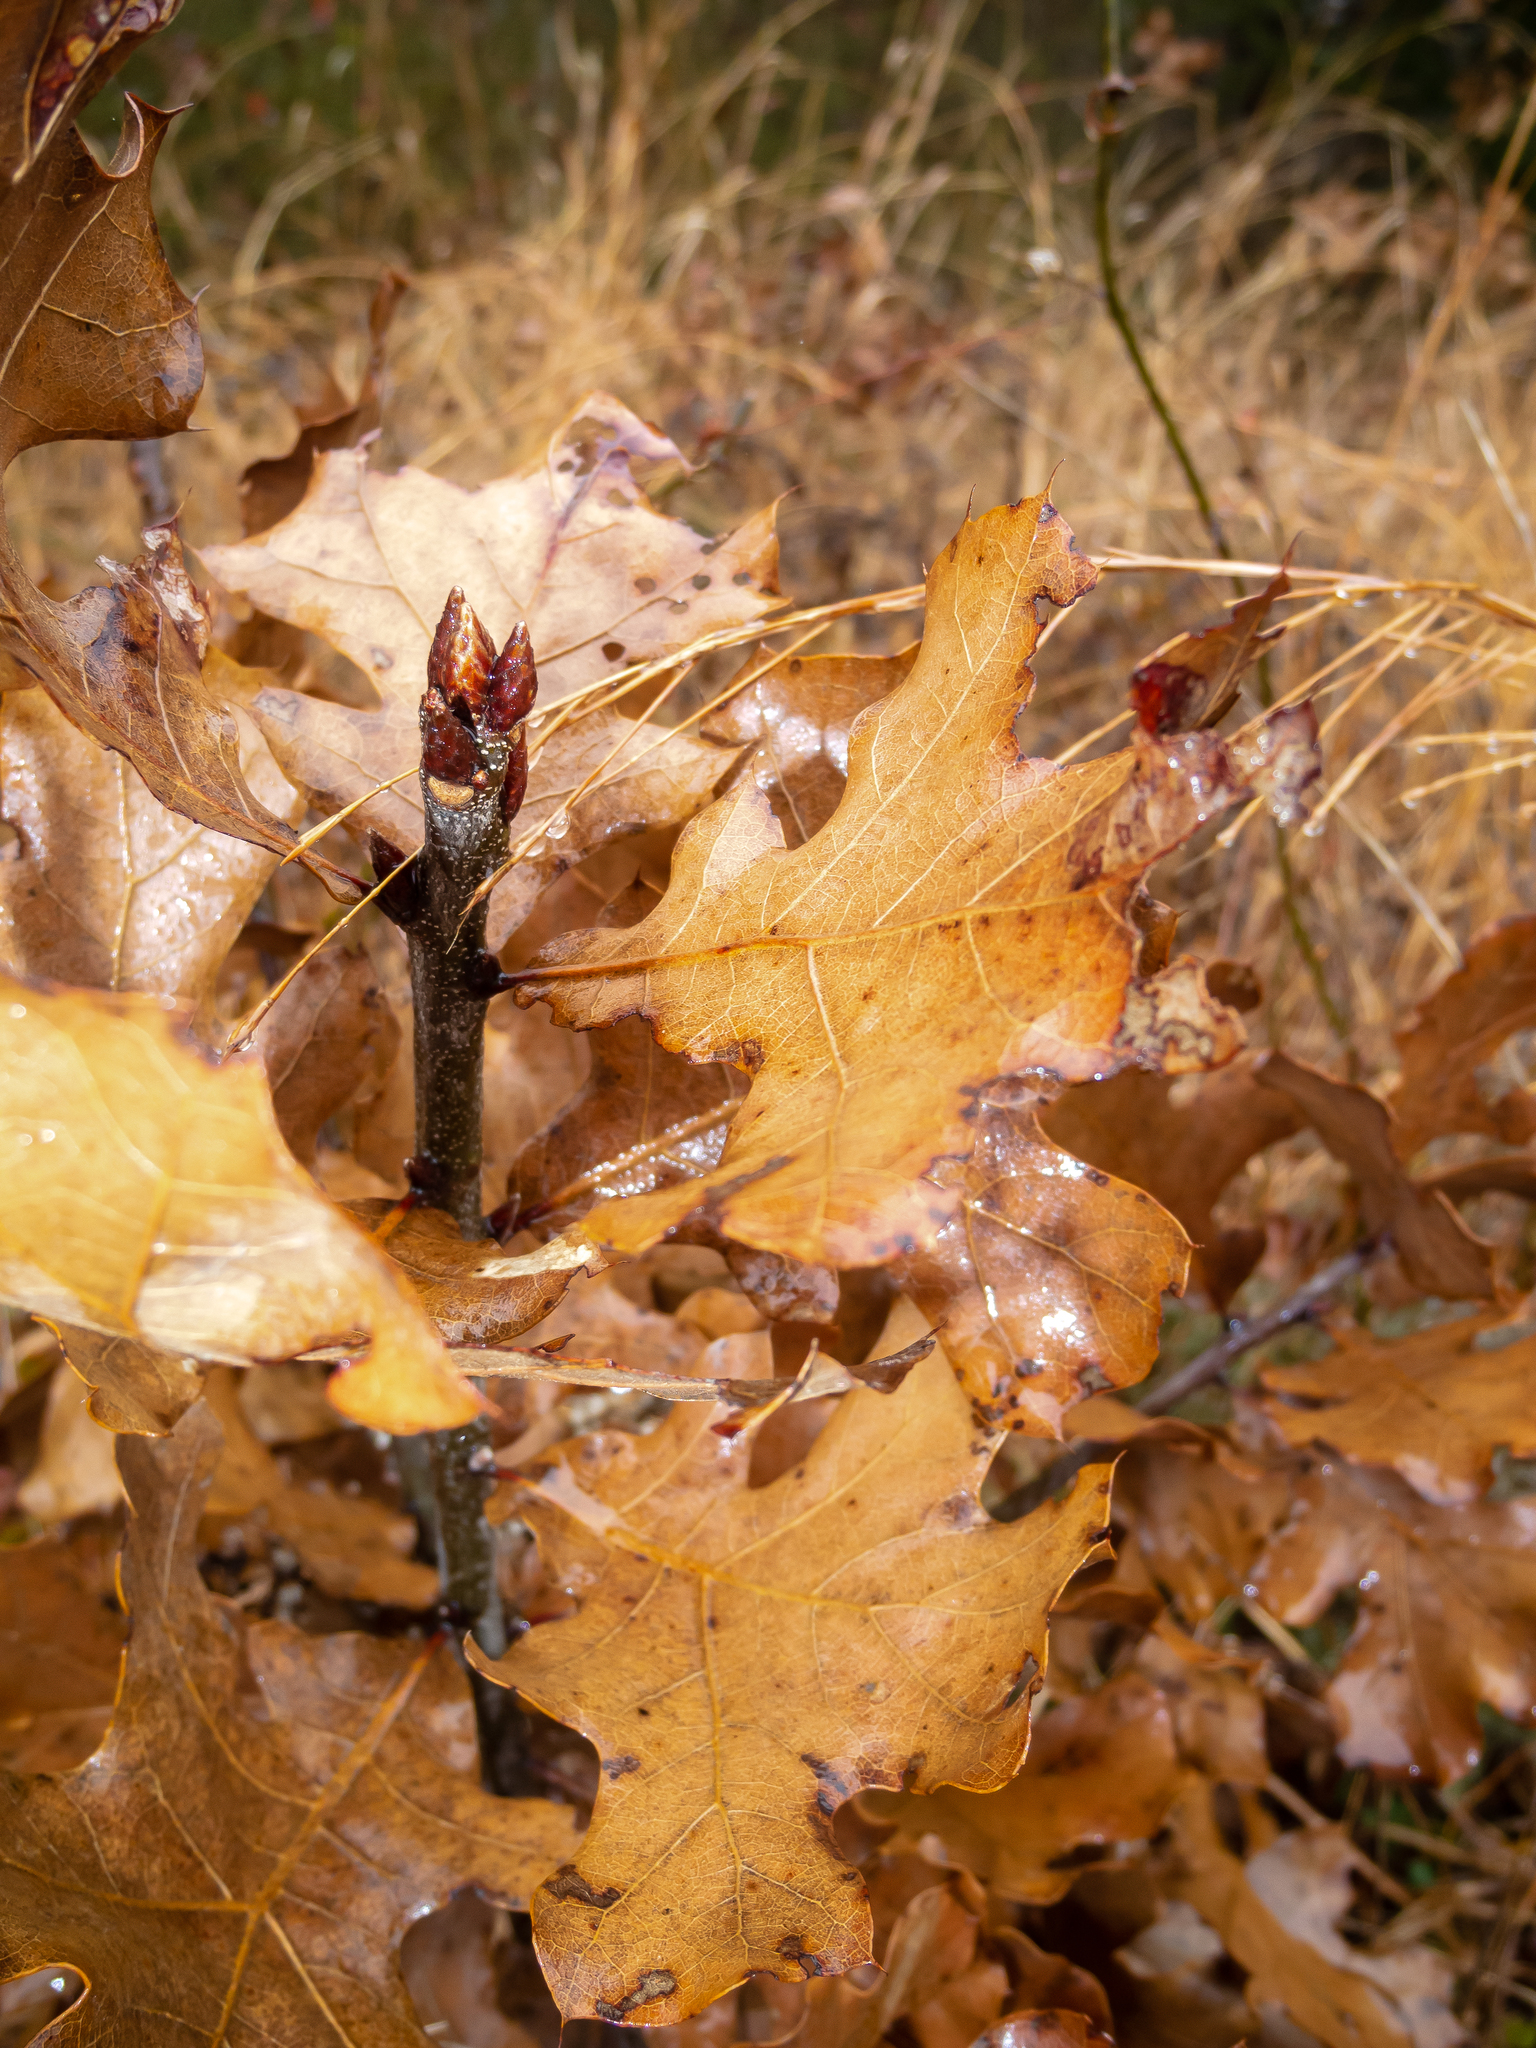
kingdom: Plantae
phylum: Tracheophyta
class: Magnoliopsida
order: Fagales
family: Fagaceae
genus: Quercus
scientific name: Quercus marilandica
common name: Blackjack oak
